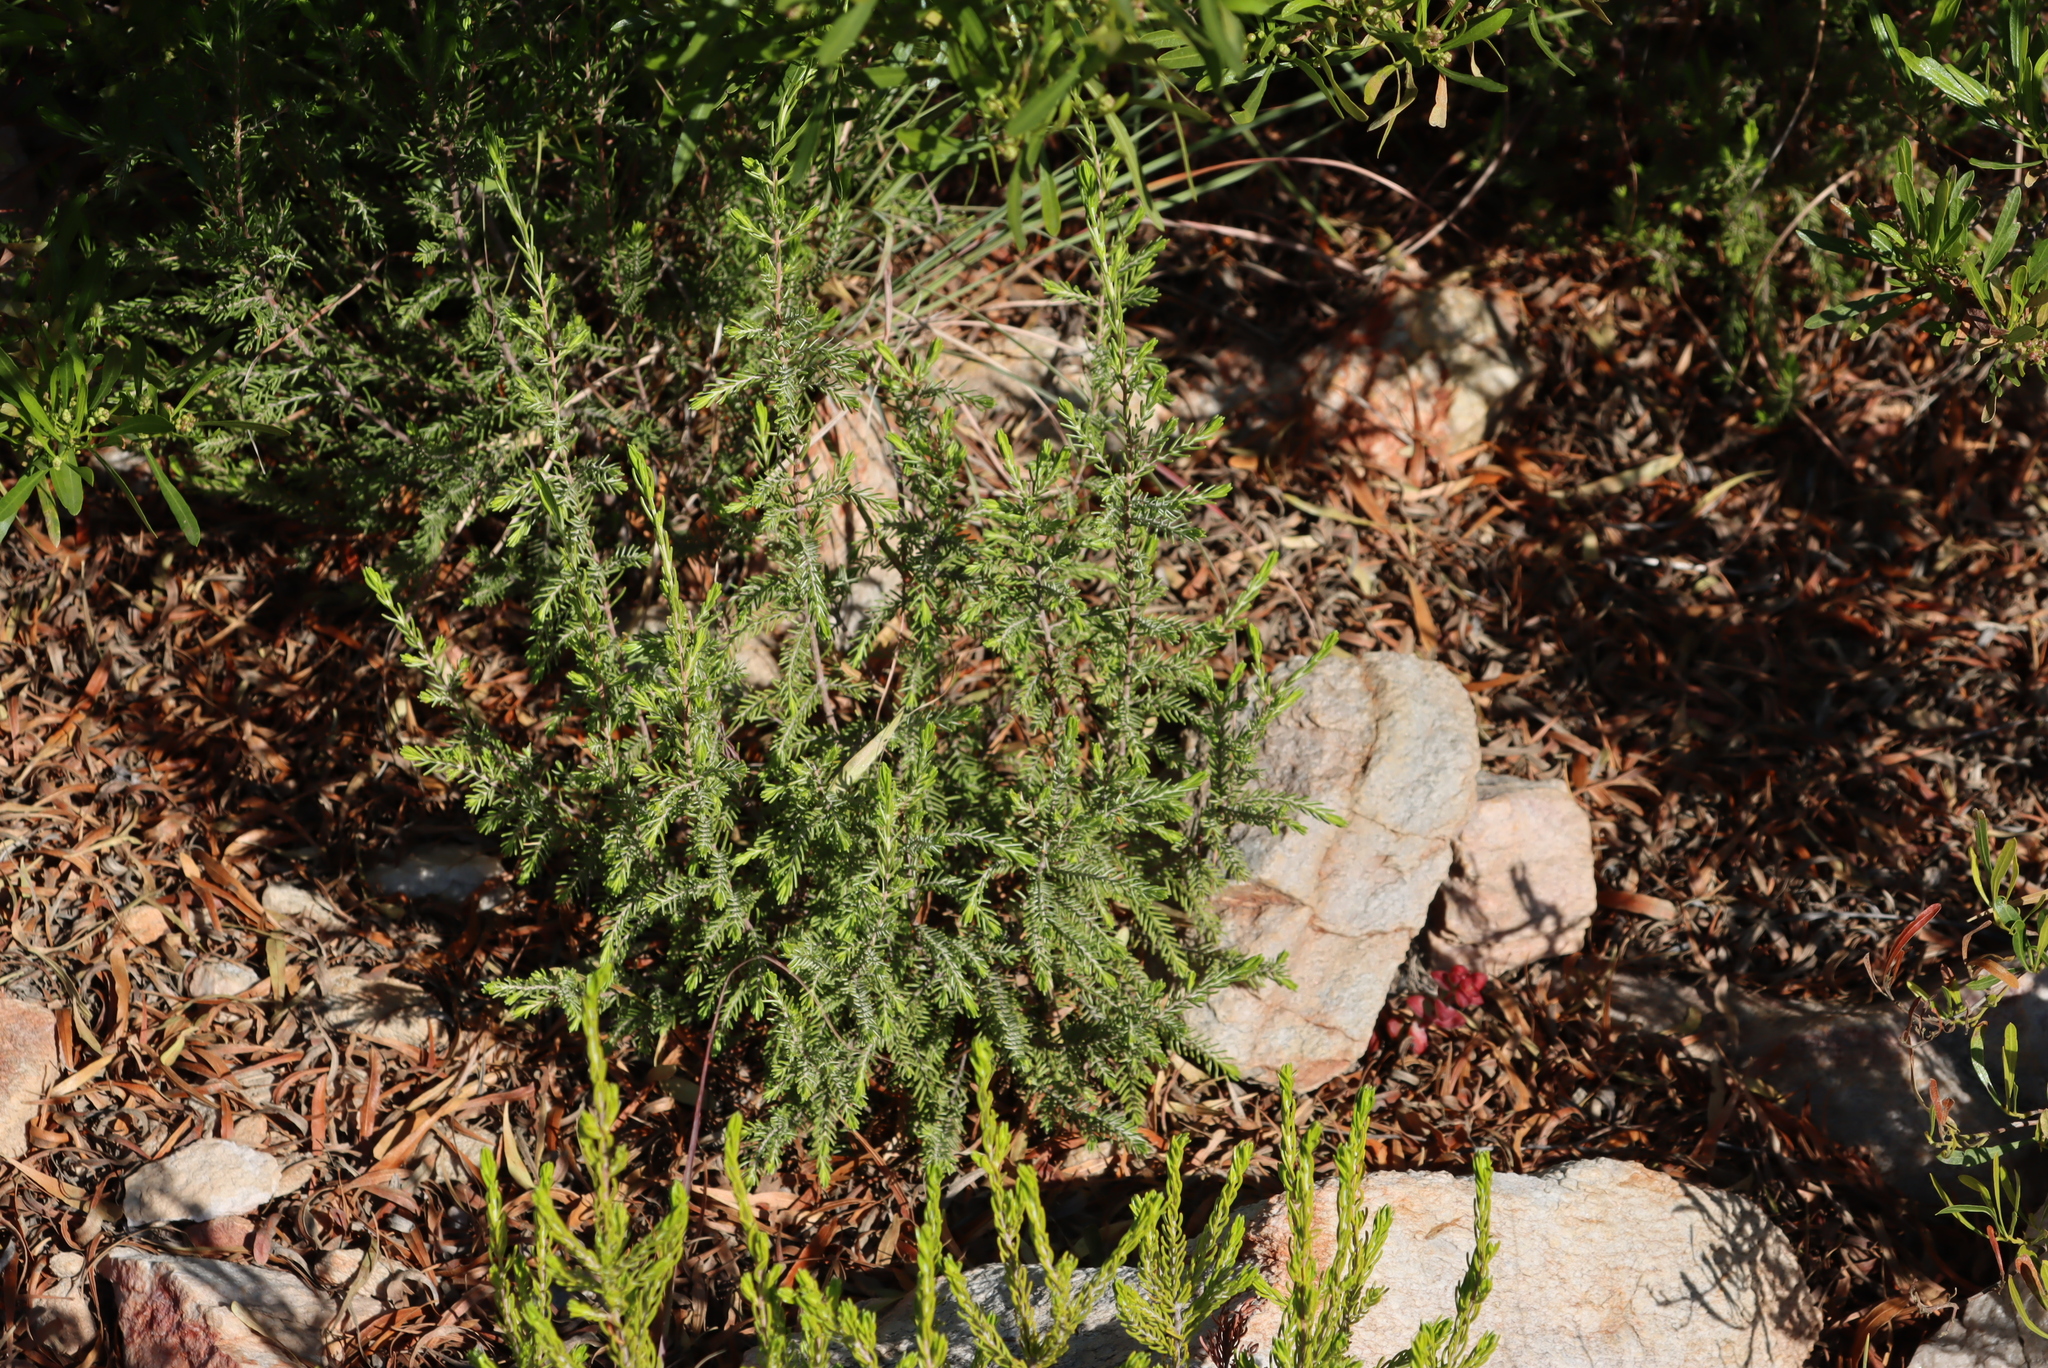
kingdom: Plantae
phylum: Tracheophyta
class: Magnoliopsida
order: Malvales
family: Thymelaeaceae
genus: Passerina
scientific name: Passerina obtusifolia
